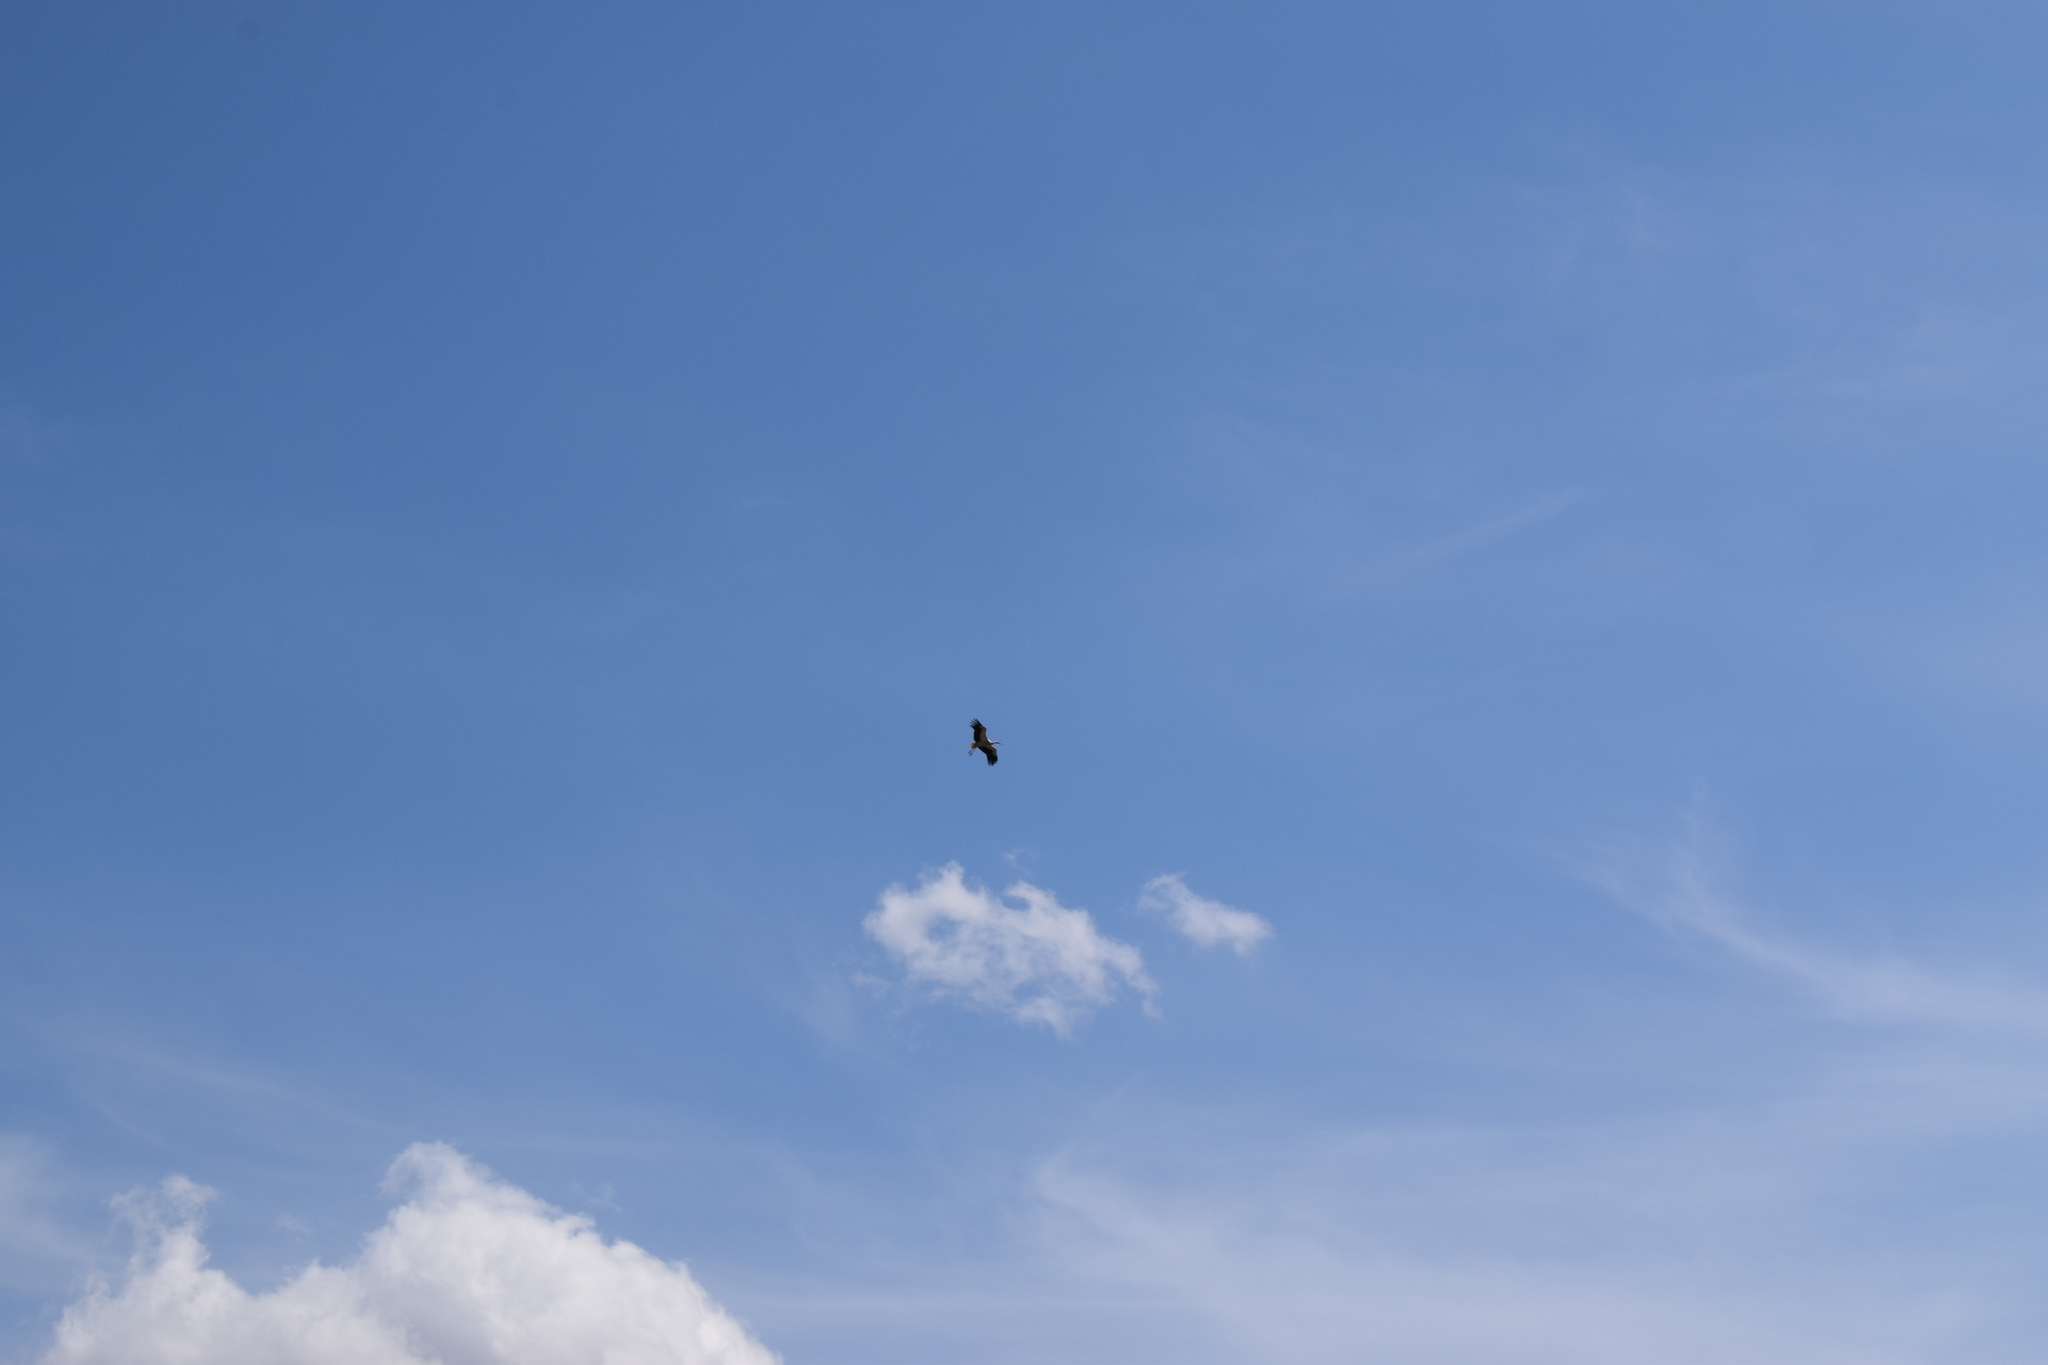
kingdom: Animalia
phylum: Chordata
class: Aves
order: Ciconiiformes
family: Ciconiidae
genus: Ciconia
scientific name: Ciconia ciconia
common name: White stork
